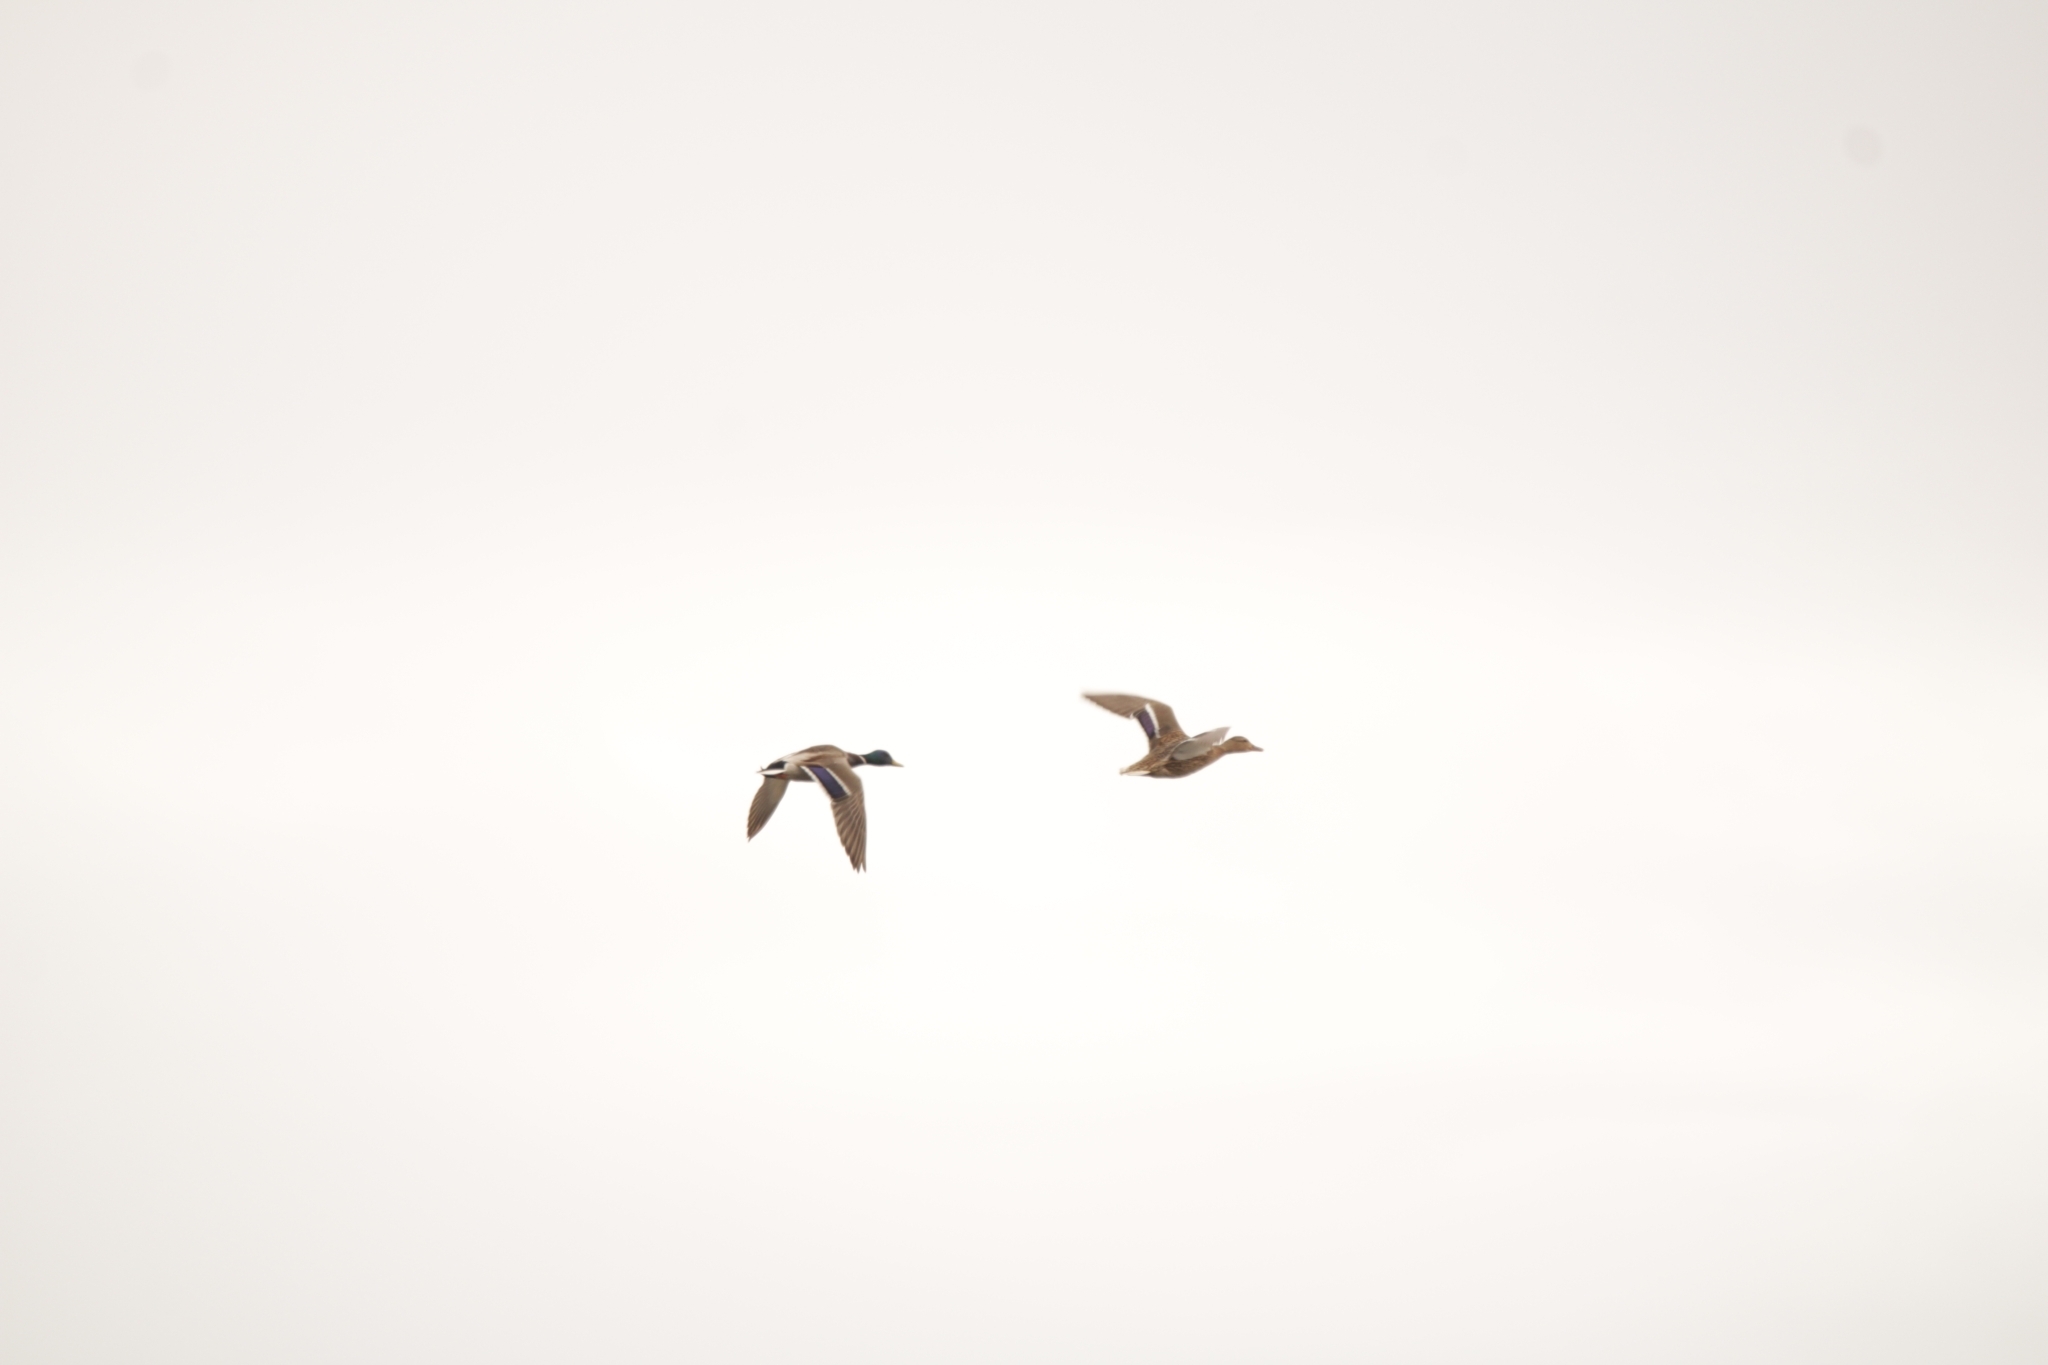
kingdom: Animalia
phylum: Chordata
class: Aves
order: Anseriformes
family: Anatidae
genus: Anas
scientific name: Anas platyrhynchos
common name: Mallard
